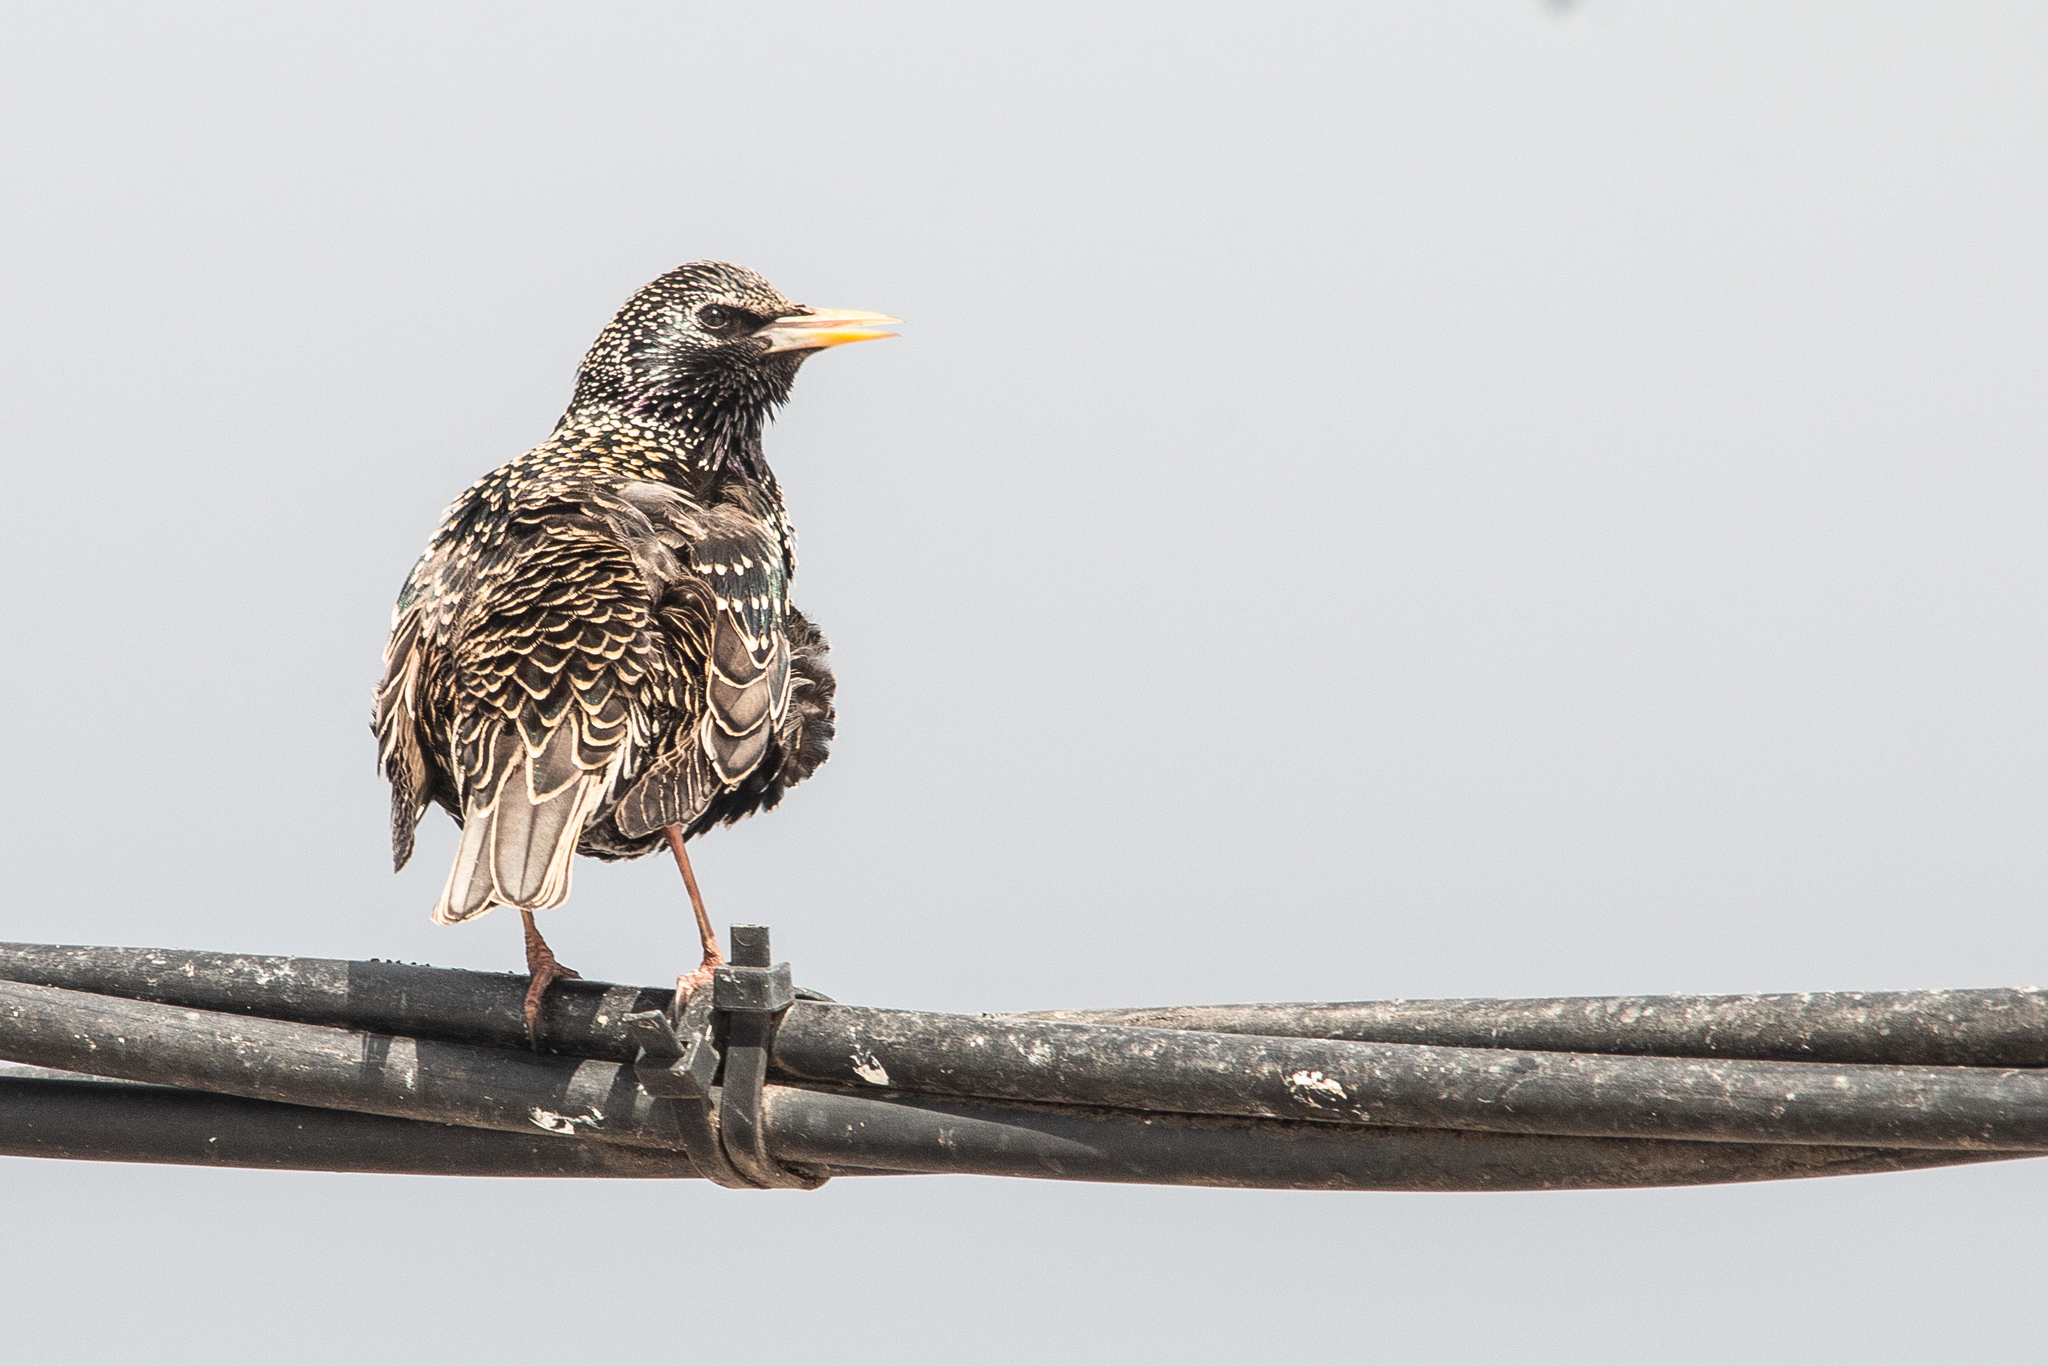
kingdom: Animalia
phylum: Chordata
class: Aves
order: Passeriformes
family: Sturnidae
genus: Sturnus
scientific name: Sturnus vulgaris
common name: Common starling
